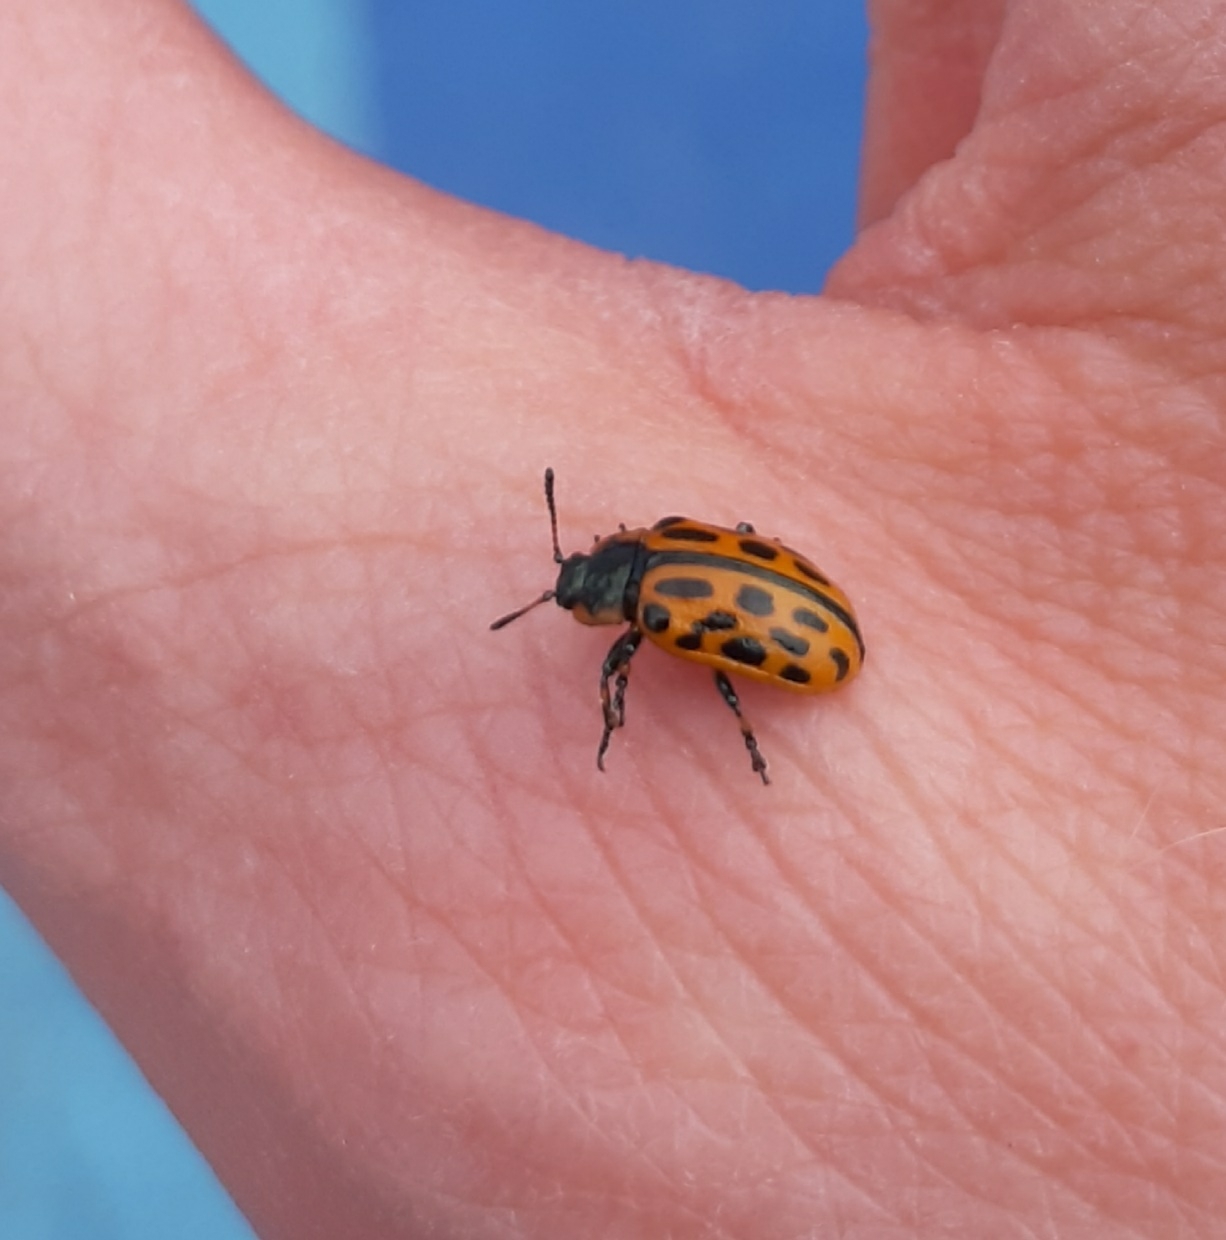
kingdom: Animalia
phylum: Arthropoda
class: Insecta
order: Coleoptera
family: Chrysomelidae
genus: Chrysomela
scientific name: Chrysomela vigintipunctata
